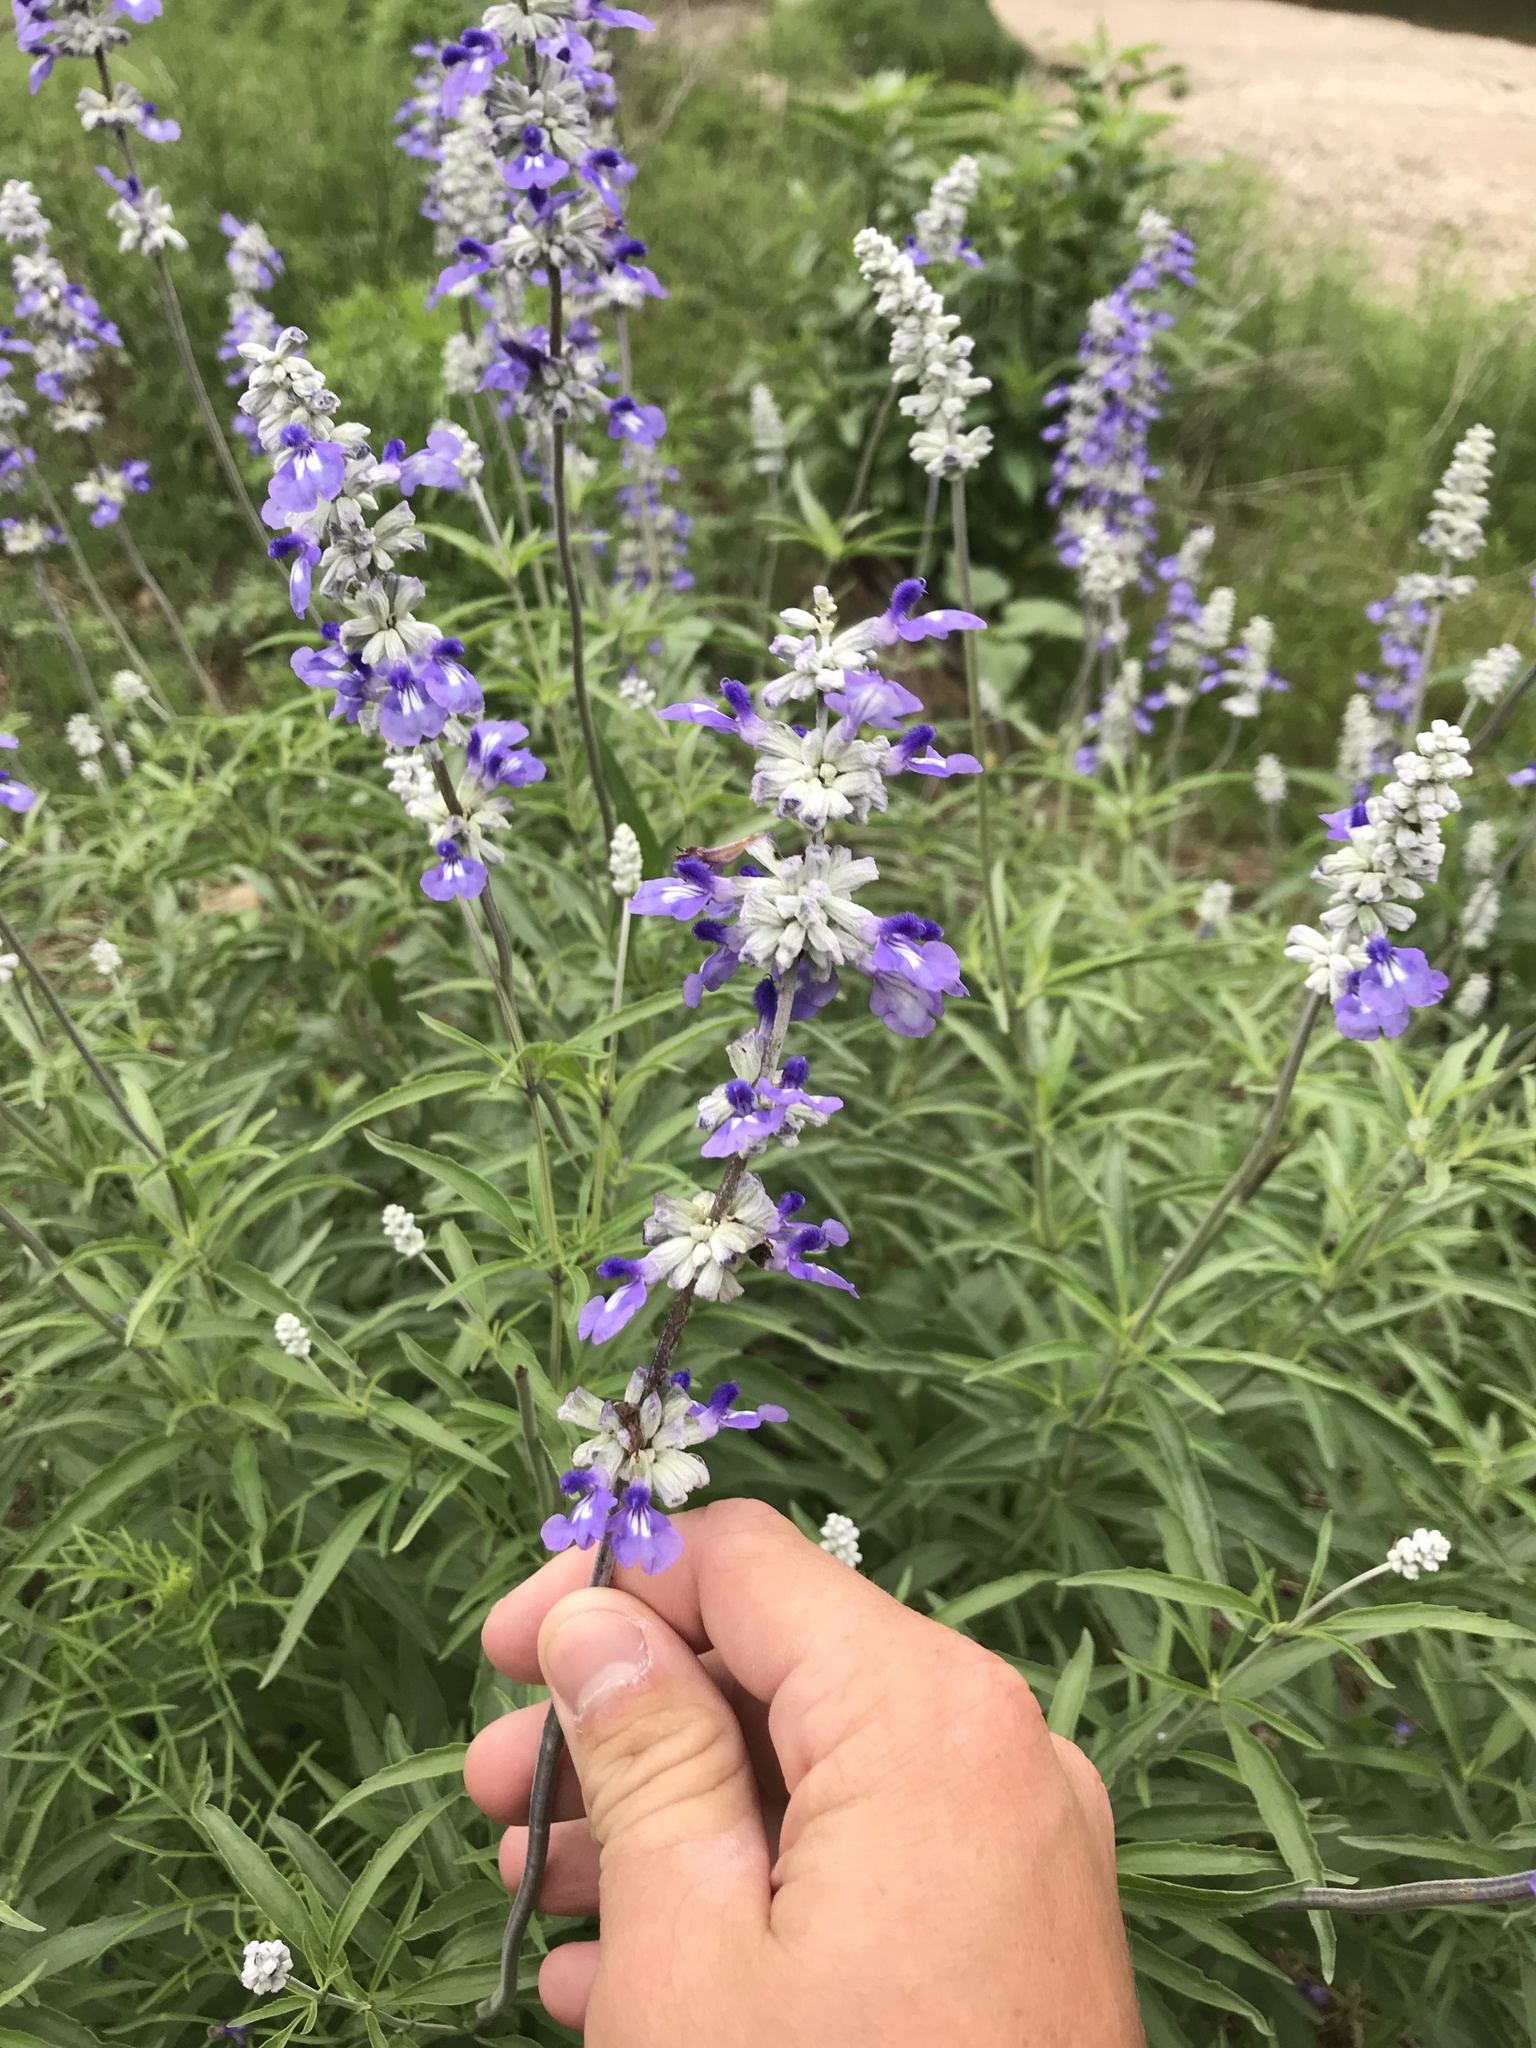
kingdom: Plantae
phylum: Tracheophyta
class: Magnoliopsida
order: Lamiales
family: Lamiaceae
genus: Salvia
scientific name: Salvia farinacea
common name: Mealy sage
